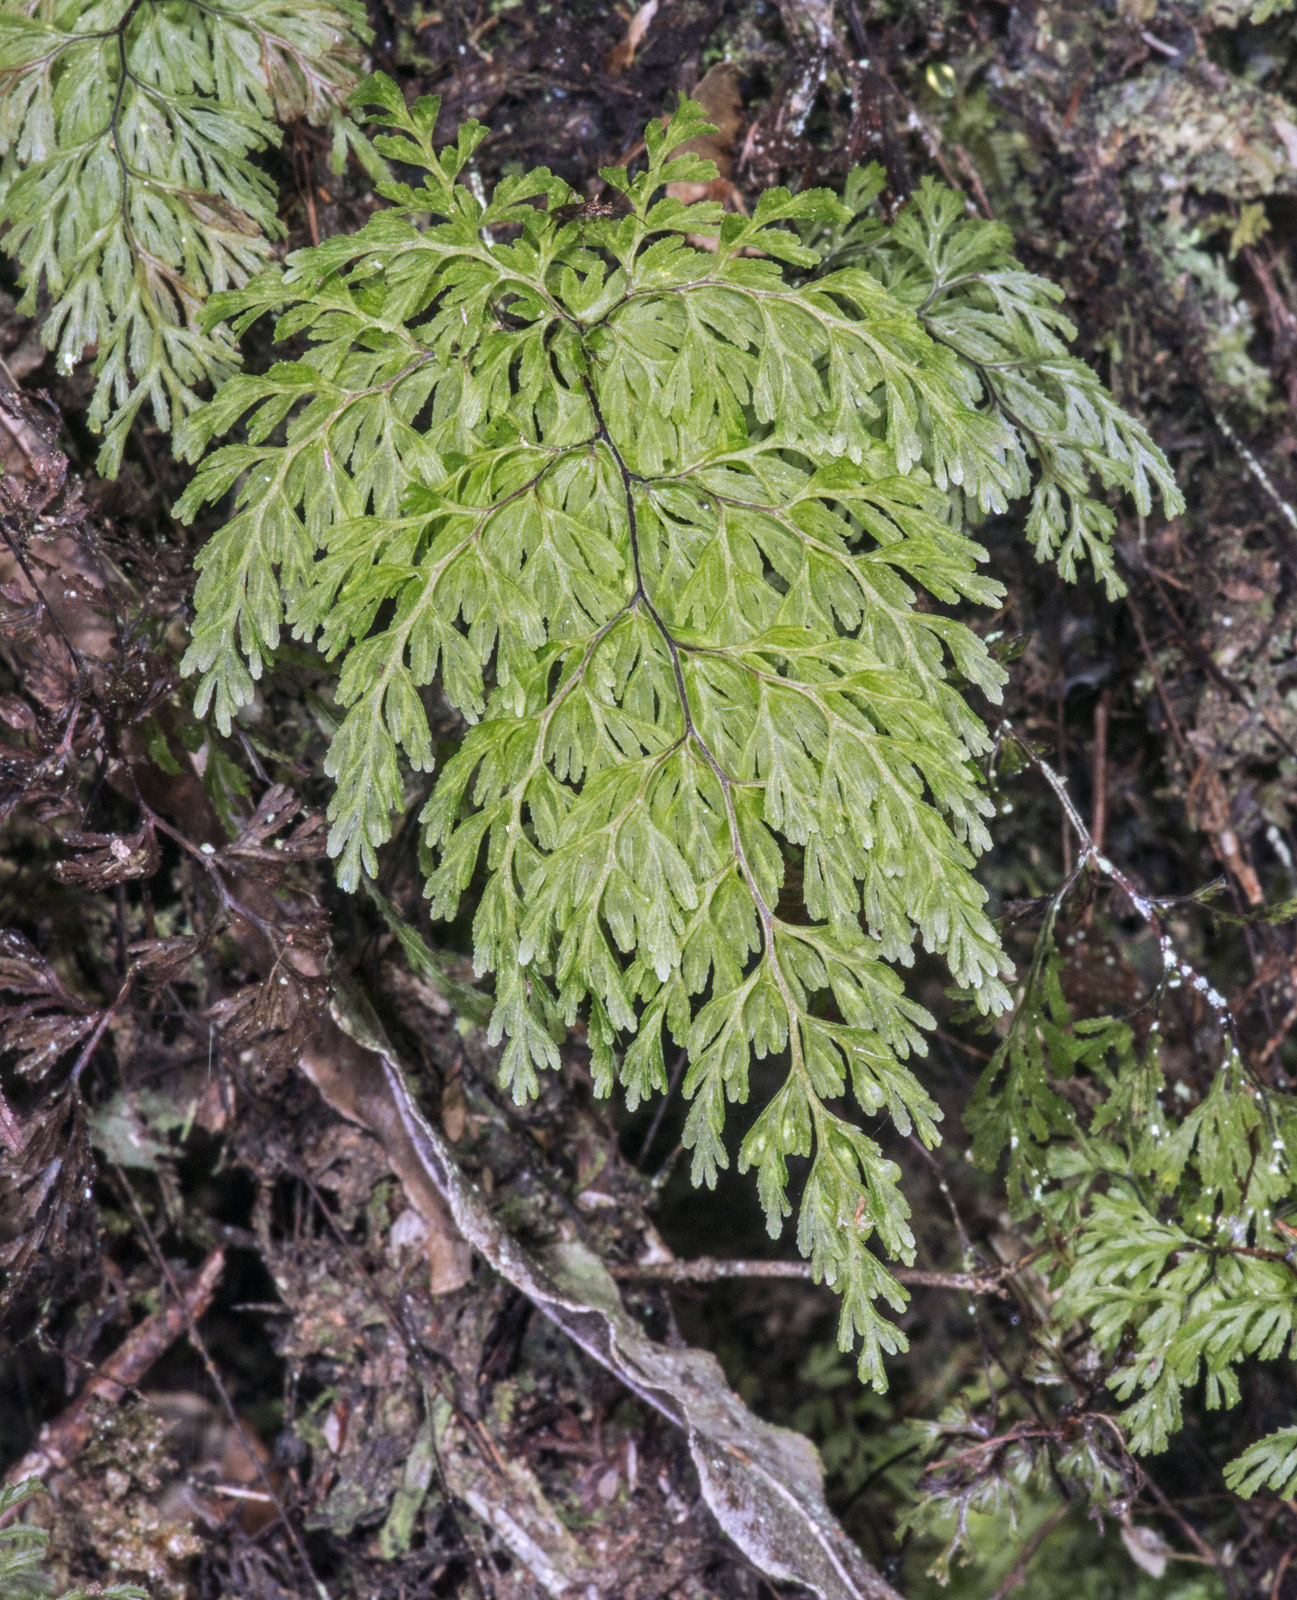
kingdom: Plantae
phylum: Tracheophyta
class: Polypodiopsida
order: Hymenophyllales
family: Hymenophyllaceae
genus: Hymenophyllum
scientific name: Hymenophyllum bivalve
